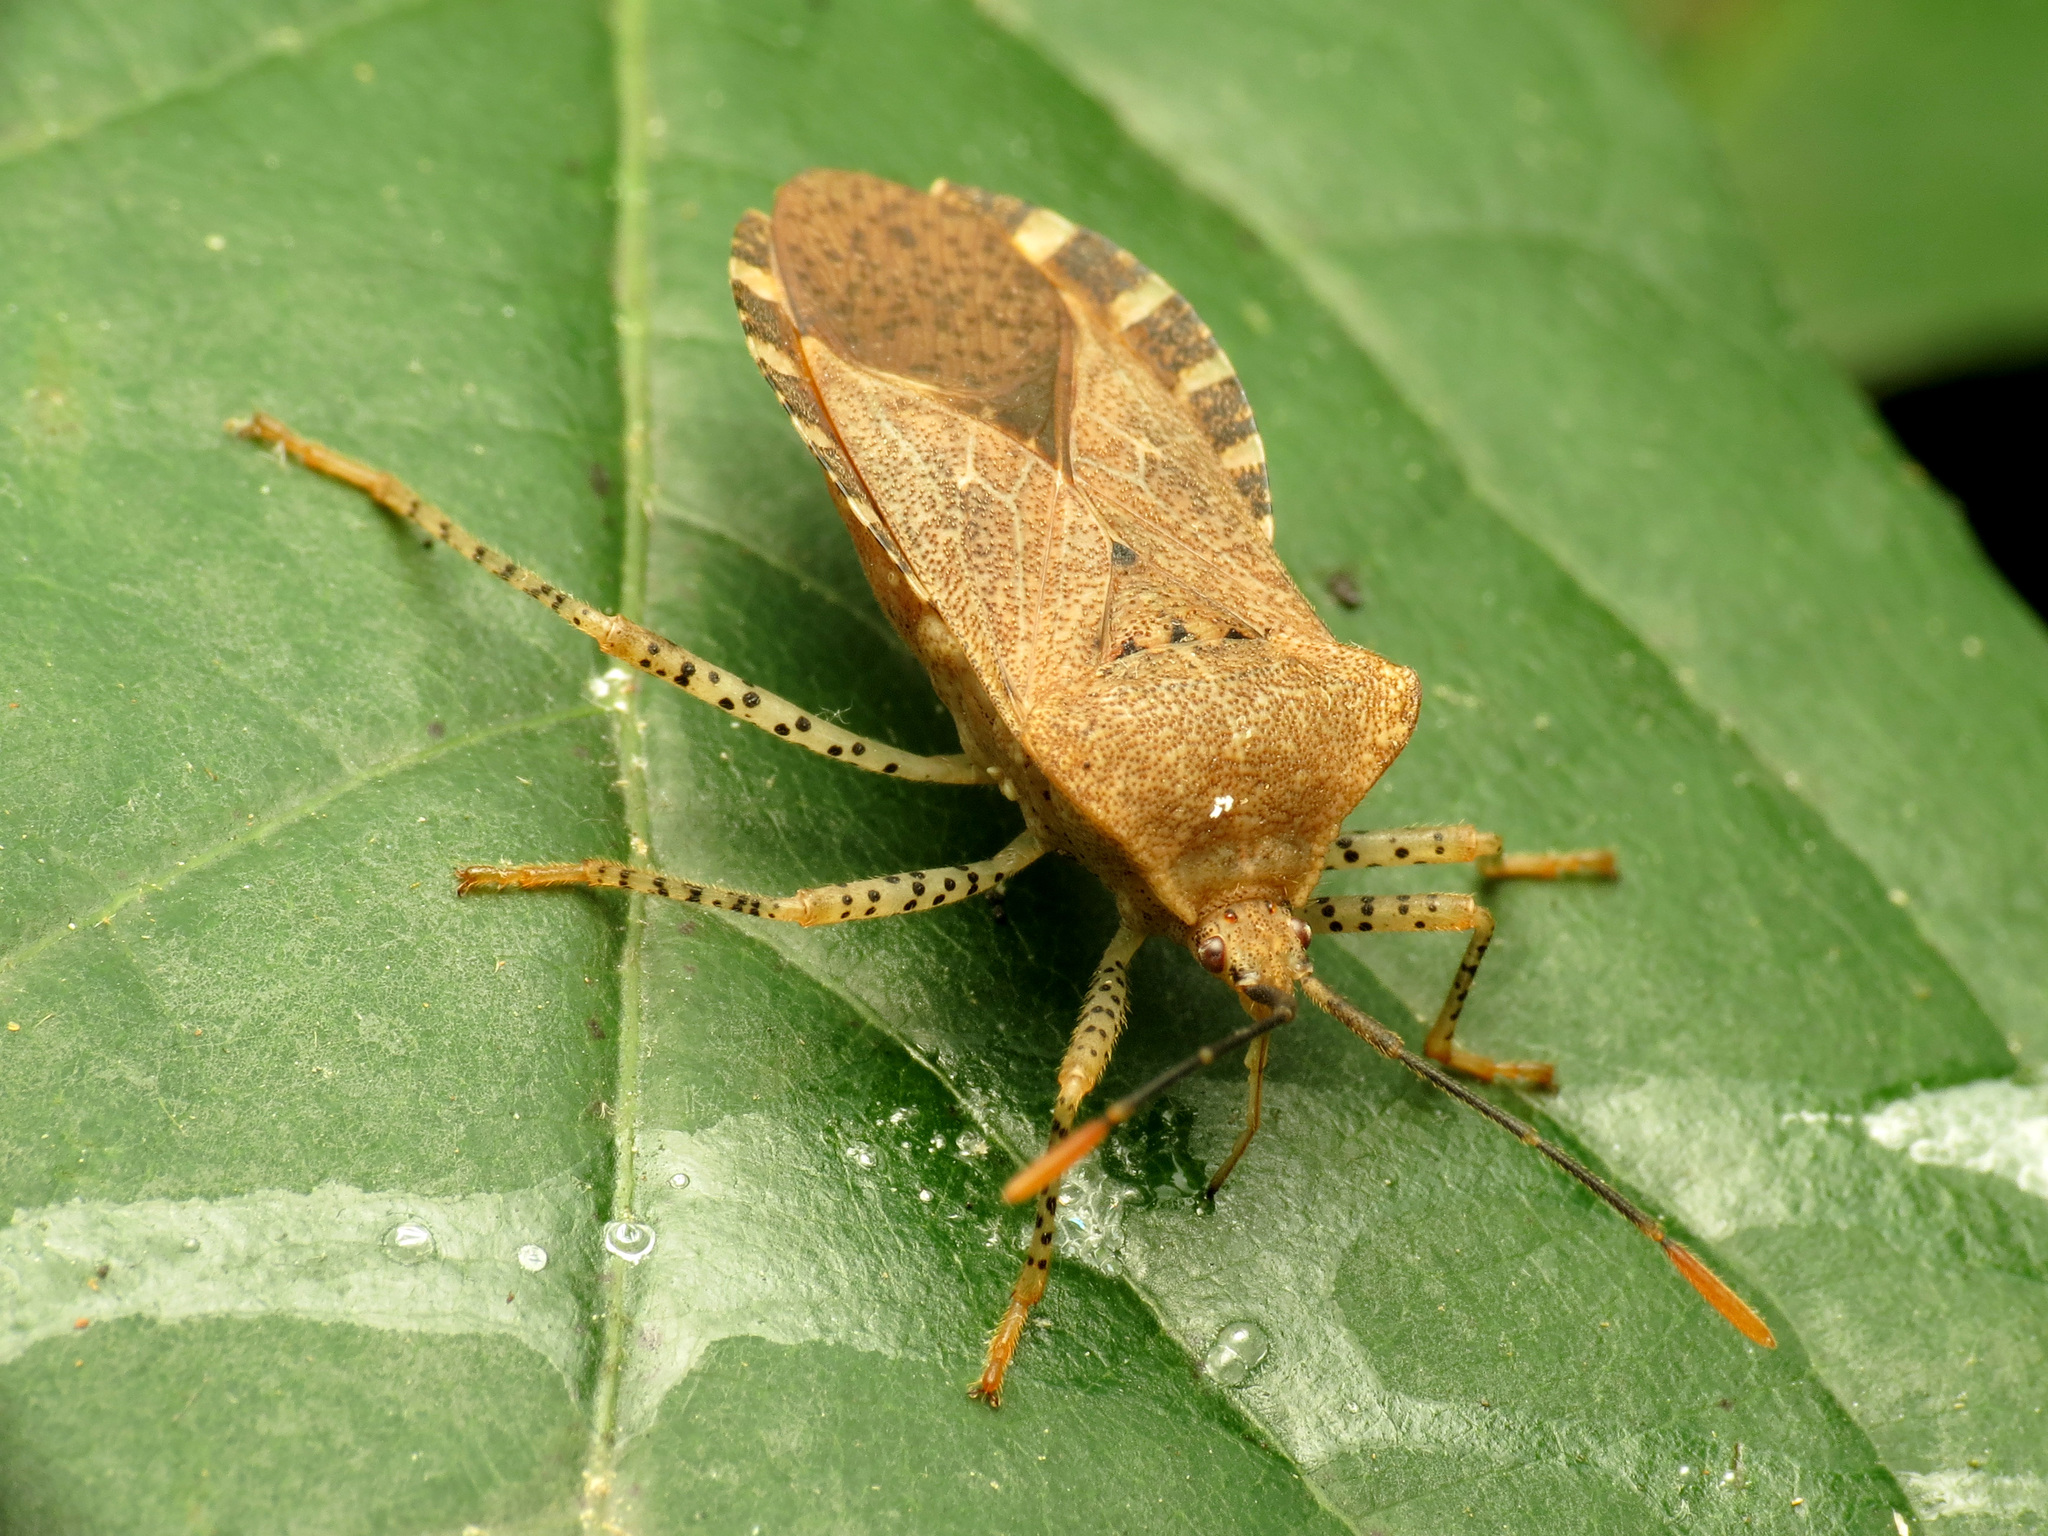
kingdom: Animalia
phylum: Arthropoda
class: Insecta
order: Hemiptera
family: Coreidae
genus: Anasa
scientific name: Anasa repetita
